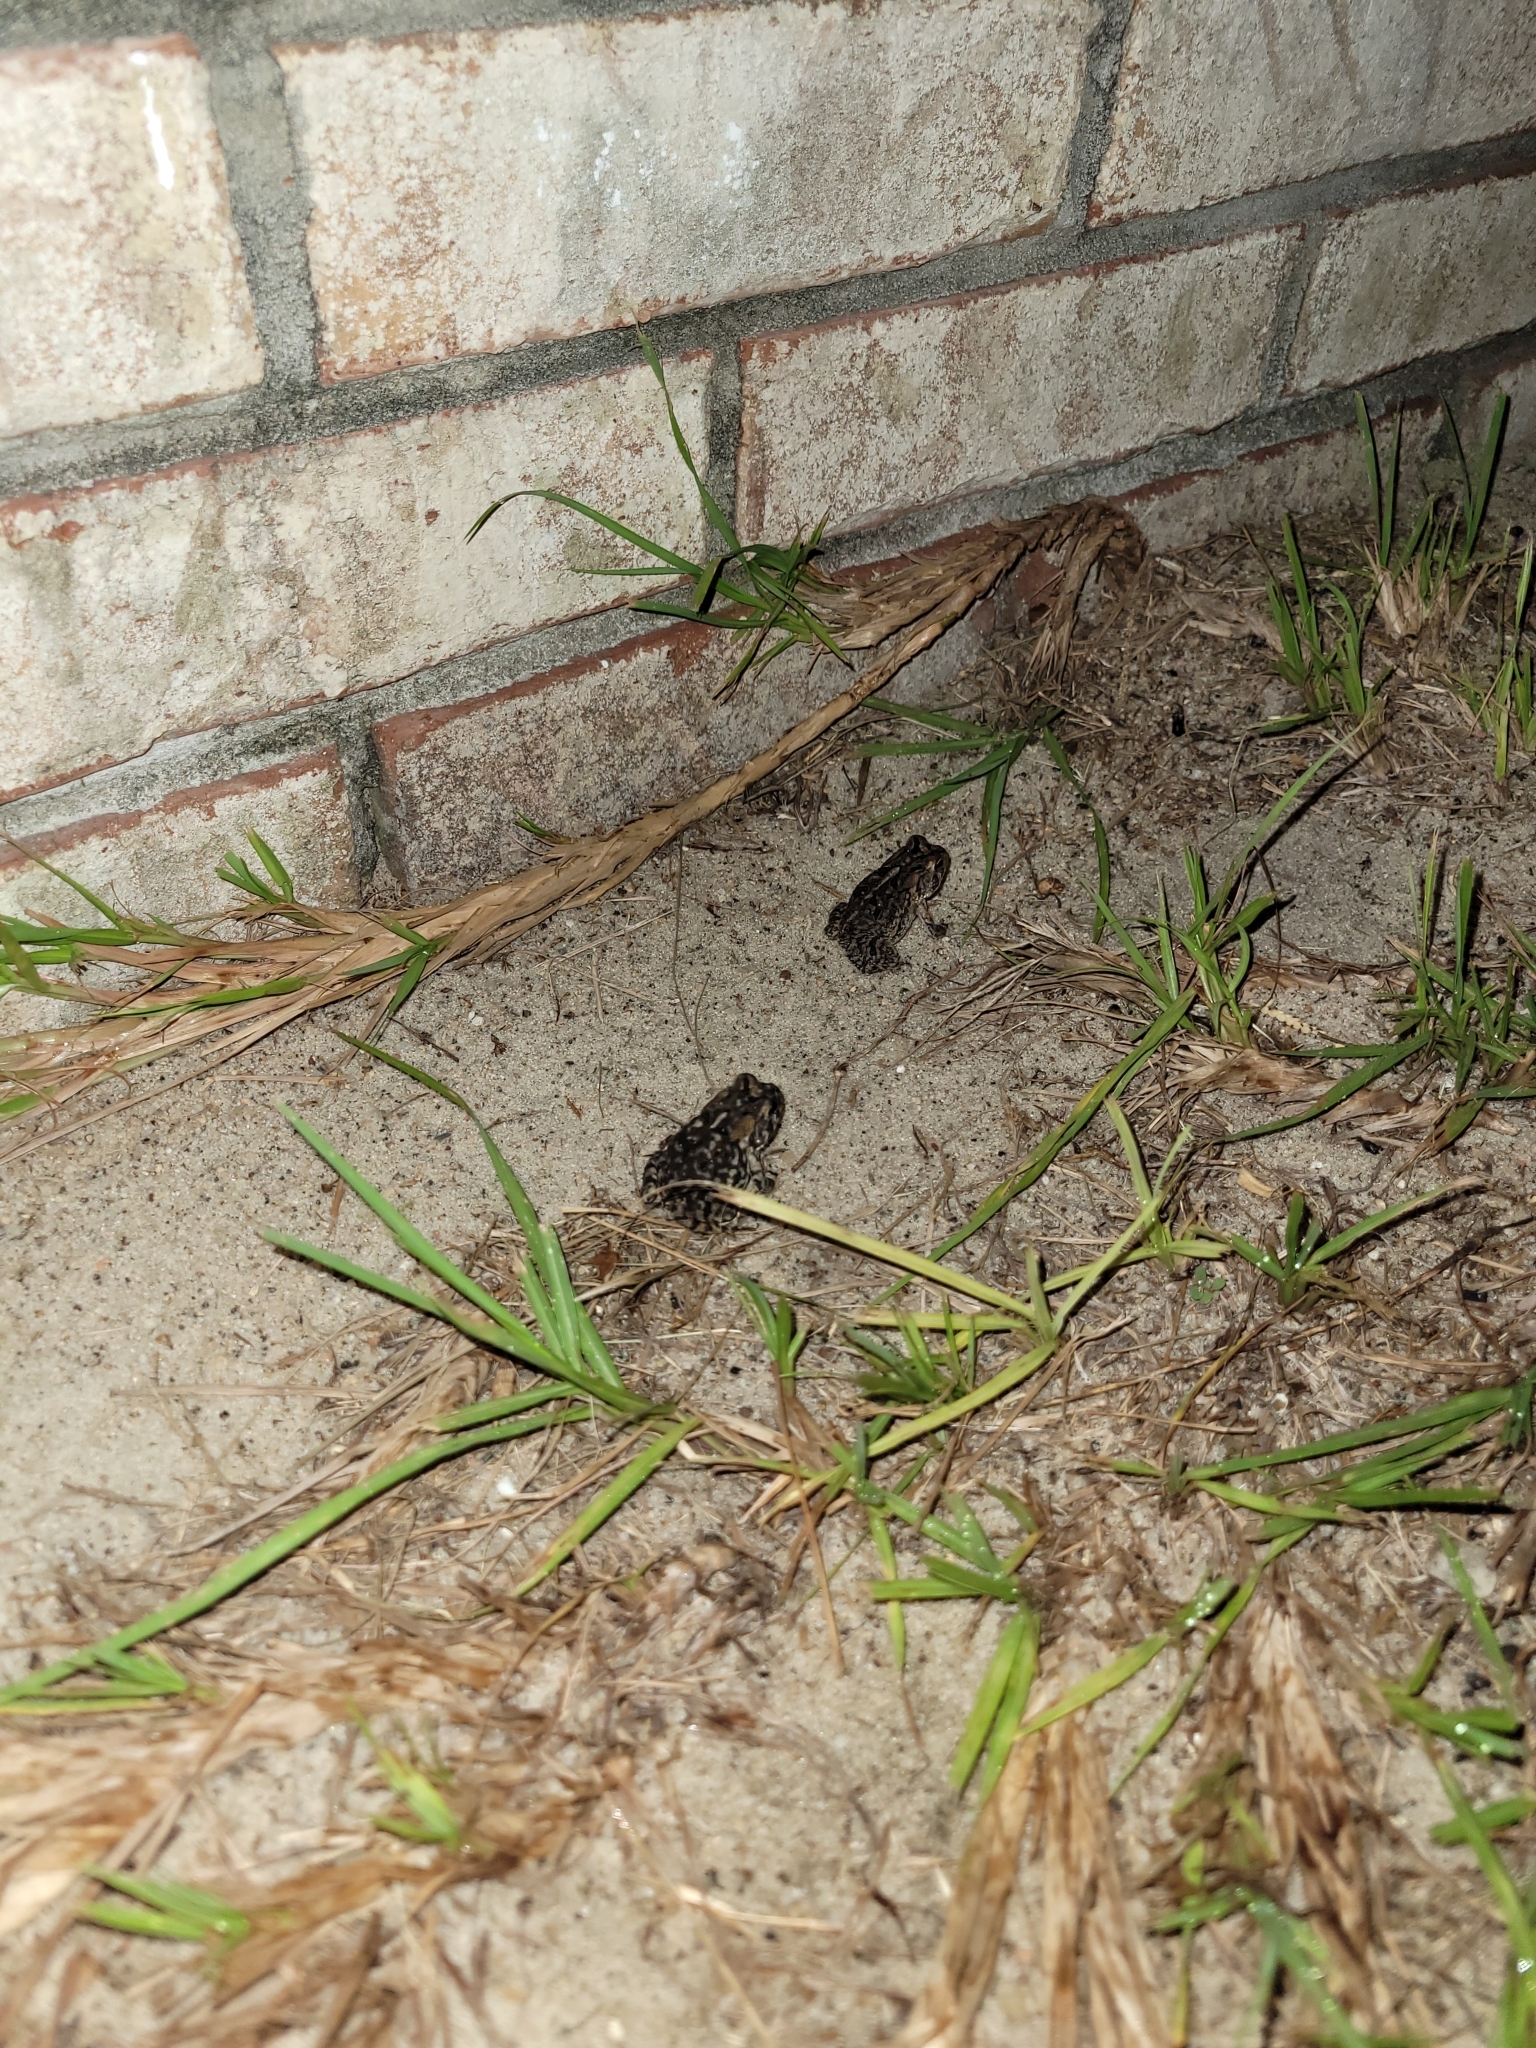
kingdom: Animalia
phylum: Chordata
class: Amphibia
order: Anura
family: Bufonidae
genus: Anaxyrus
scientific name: Anaxyrus terrestris
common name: Southern toad
